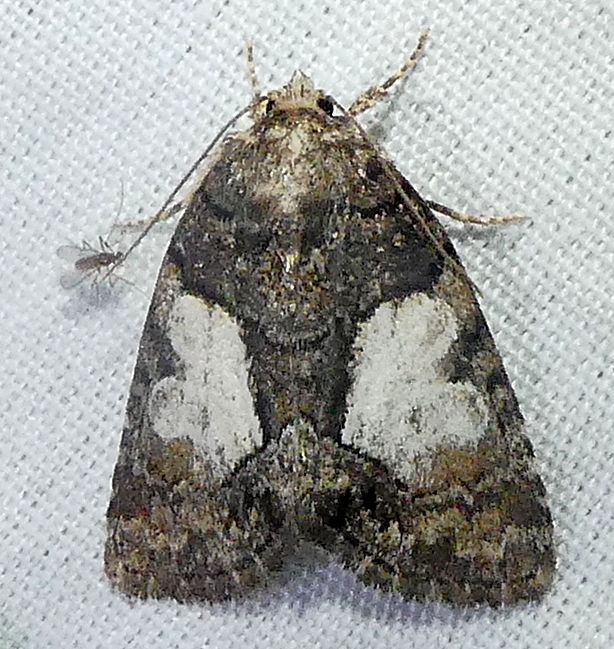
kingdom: Animalia
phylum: Arthropoda
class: Insecta
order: Lepidoptera
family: Noctuidae
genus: Chytonix
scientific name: Chytonix palliatricula
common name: Cloaked marvel
